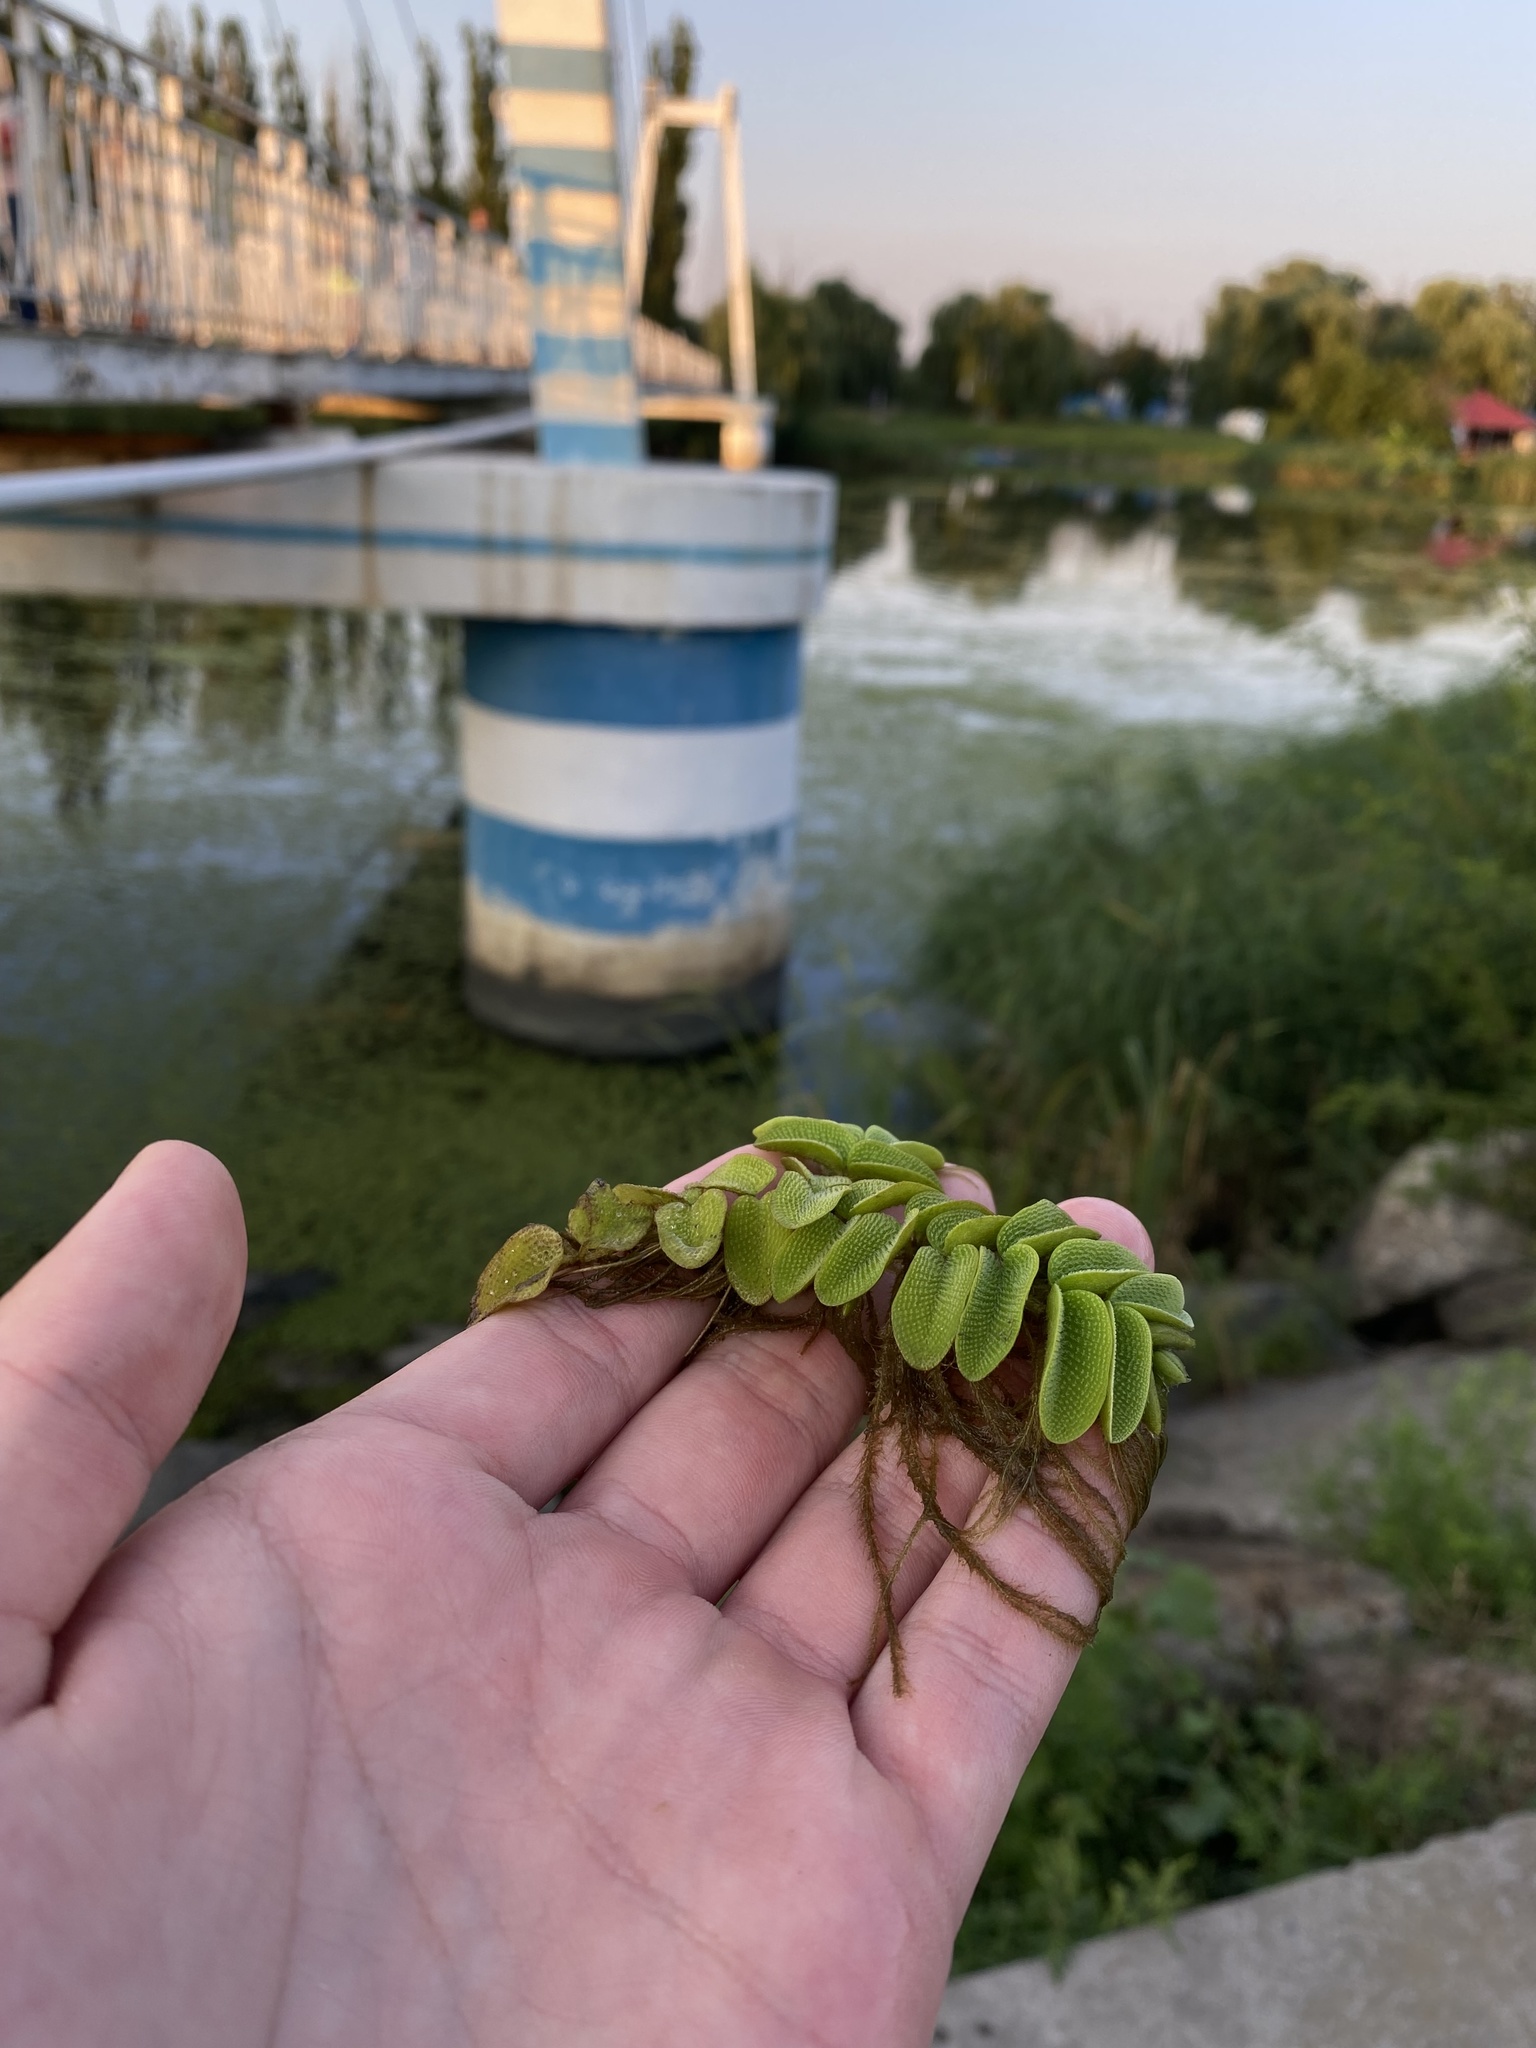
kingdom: Plantae
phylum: Tracheophyta
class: Polypodiopsida
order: Salviniales
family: Salviniaceae
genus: Salvinia
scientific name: Salvinia natans
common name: Floating fern
